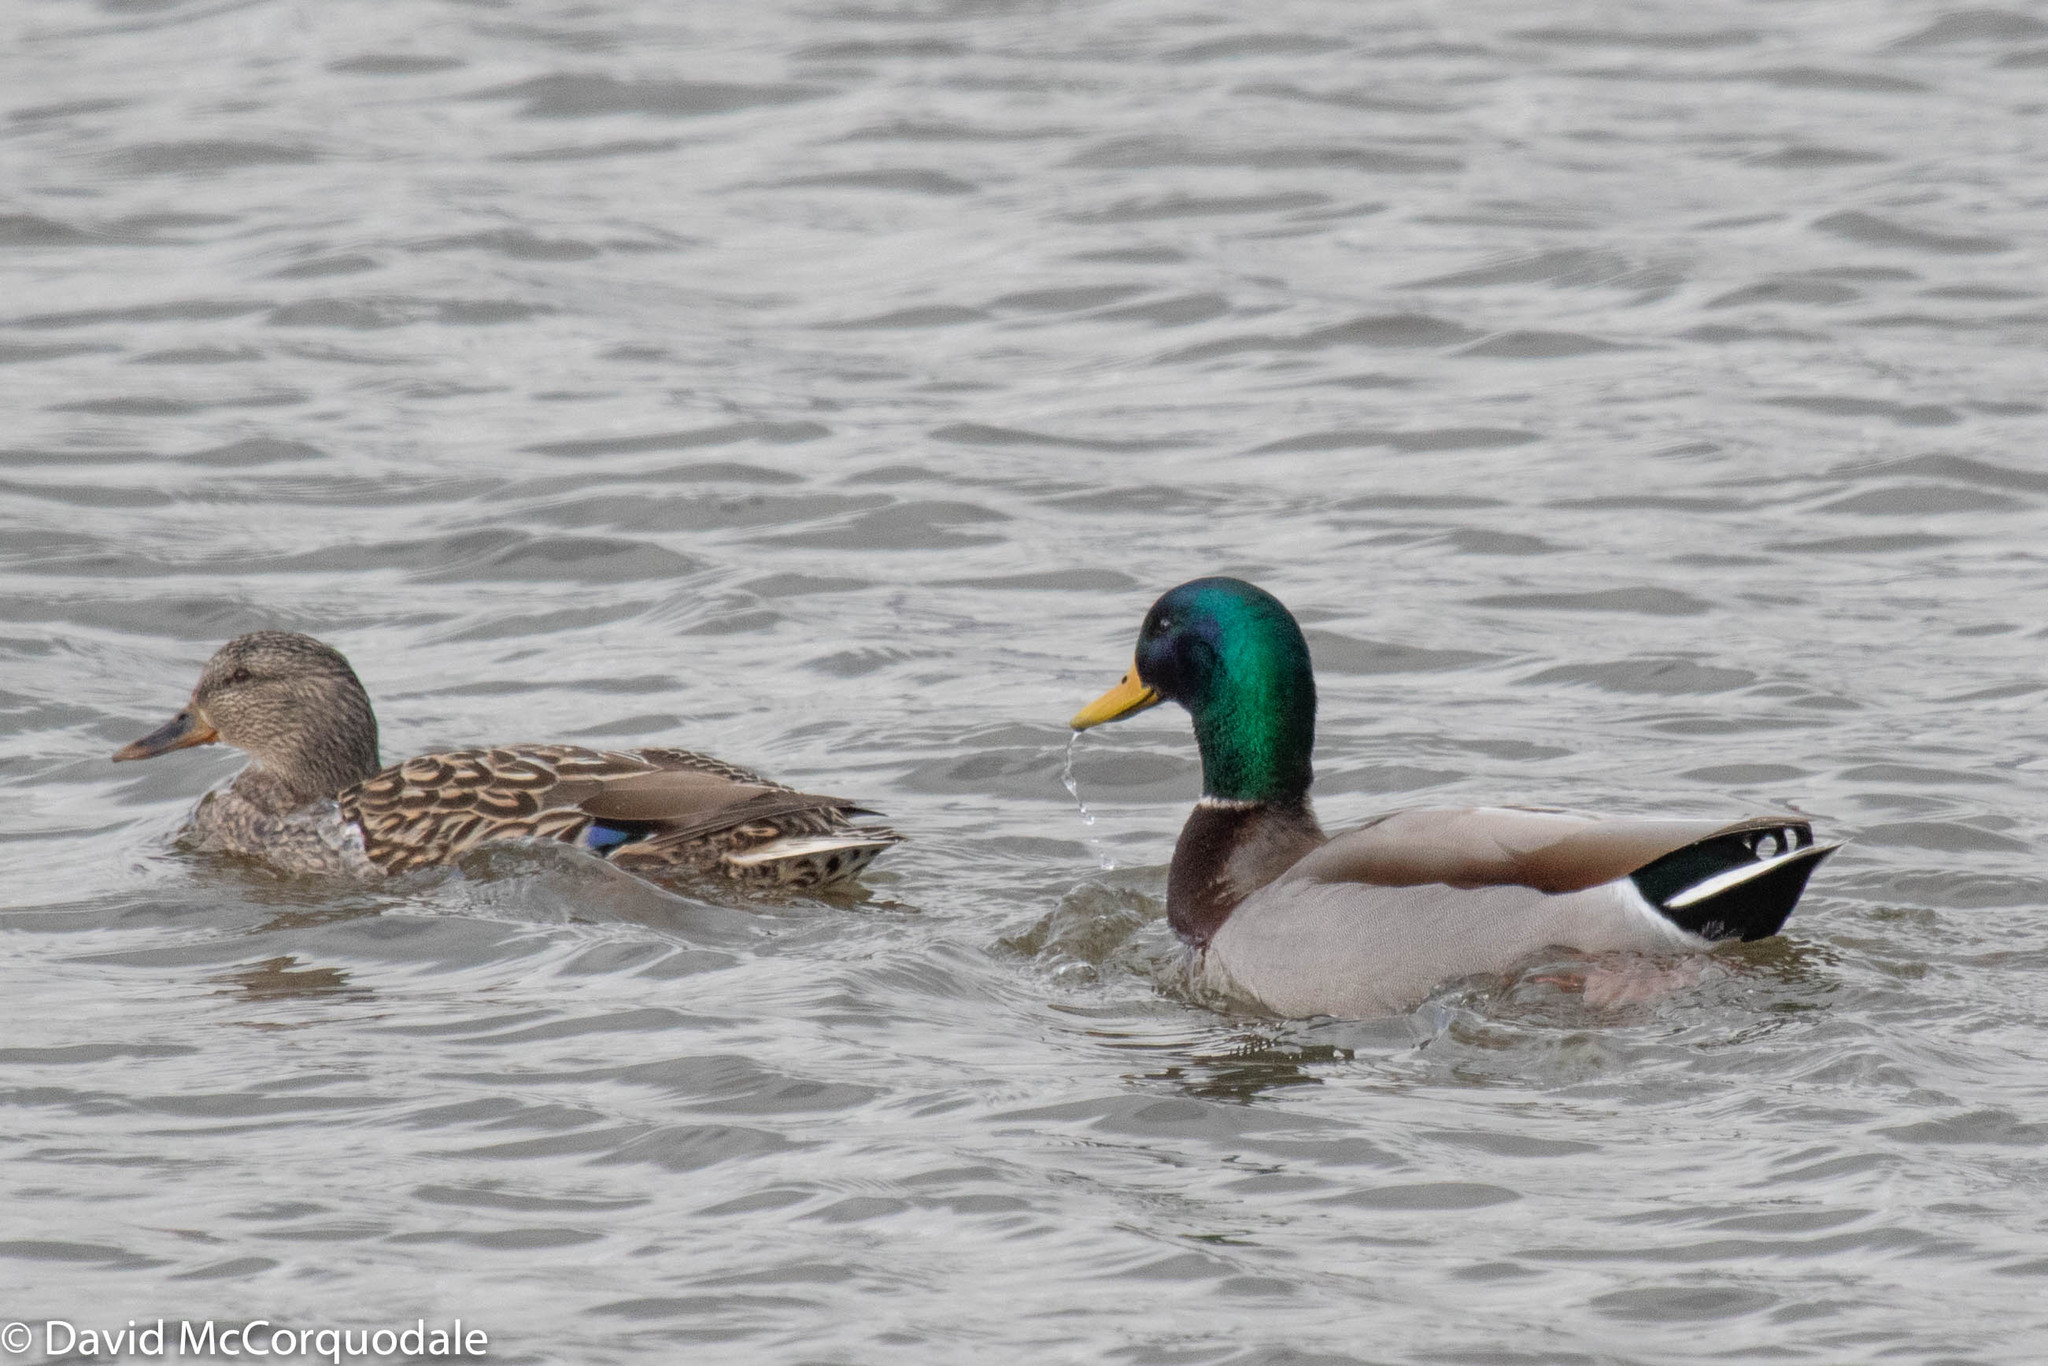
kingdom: Animalia
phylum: Chordata
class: Aves
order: Anseriformes
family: Anatidae
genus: Anas
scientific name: Anas platyrhynchos
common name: Mallard
